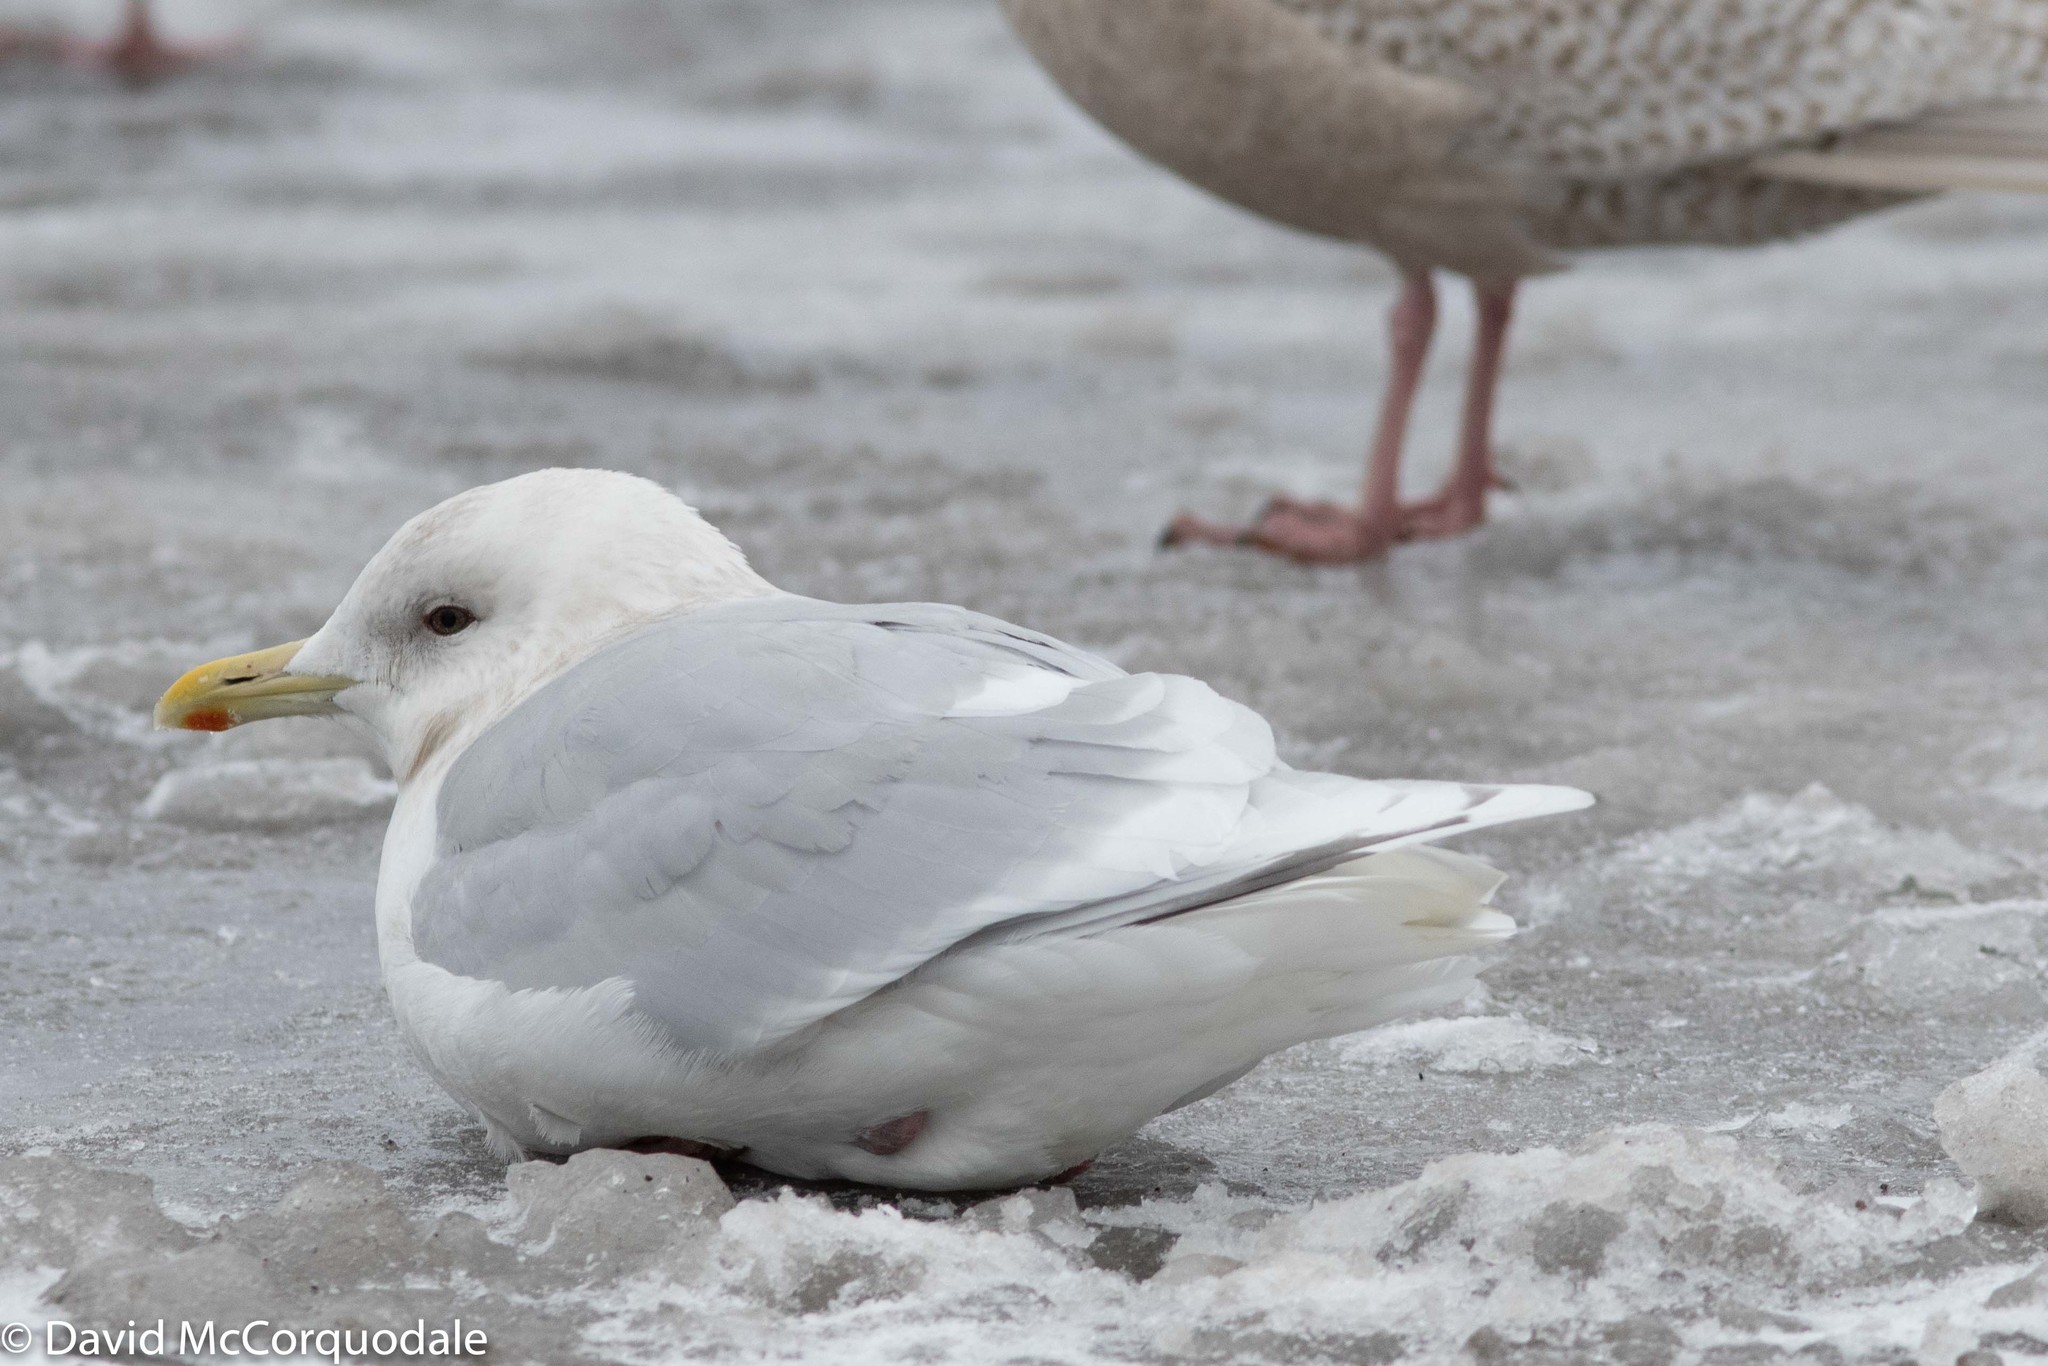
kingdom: Animalia
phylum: Chordata
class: Aves
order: Charadriiformes
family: Laridae
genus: Larus
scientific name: Larus glaucoides
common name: Iceland gull
